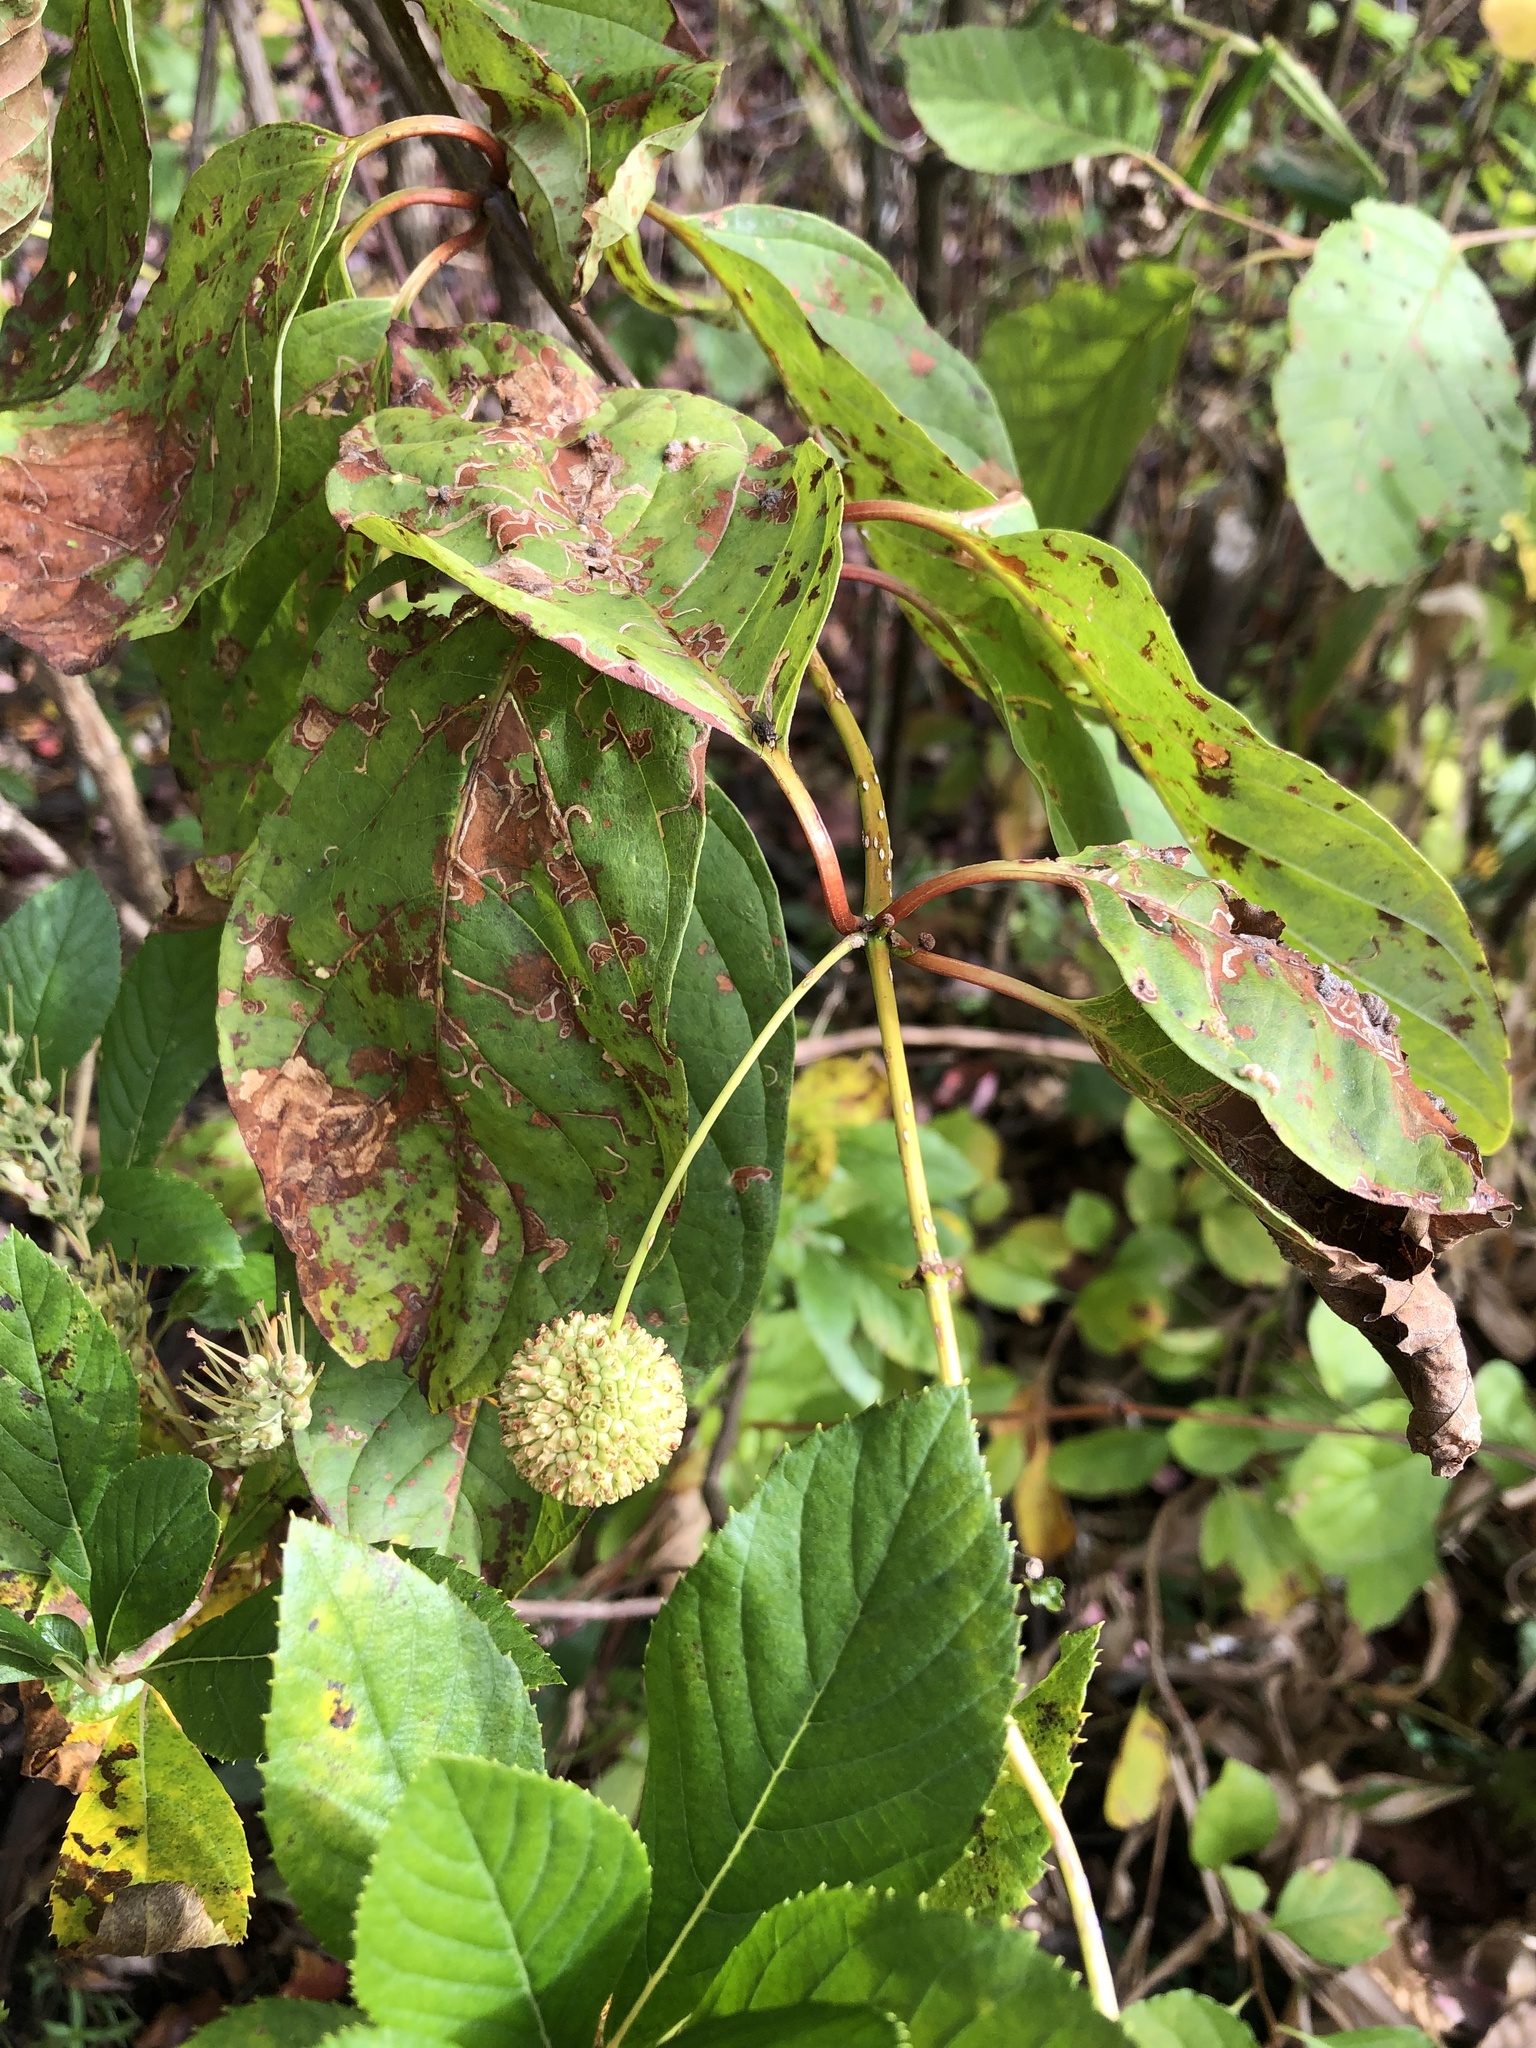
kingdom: Plantae
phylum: Tracheophyta
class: Magnoliopsida
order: Gentianales
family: Rubiaceae
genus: Cephalanthus
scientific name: Cephalanthus occidentalis
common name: Button-willow
